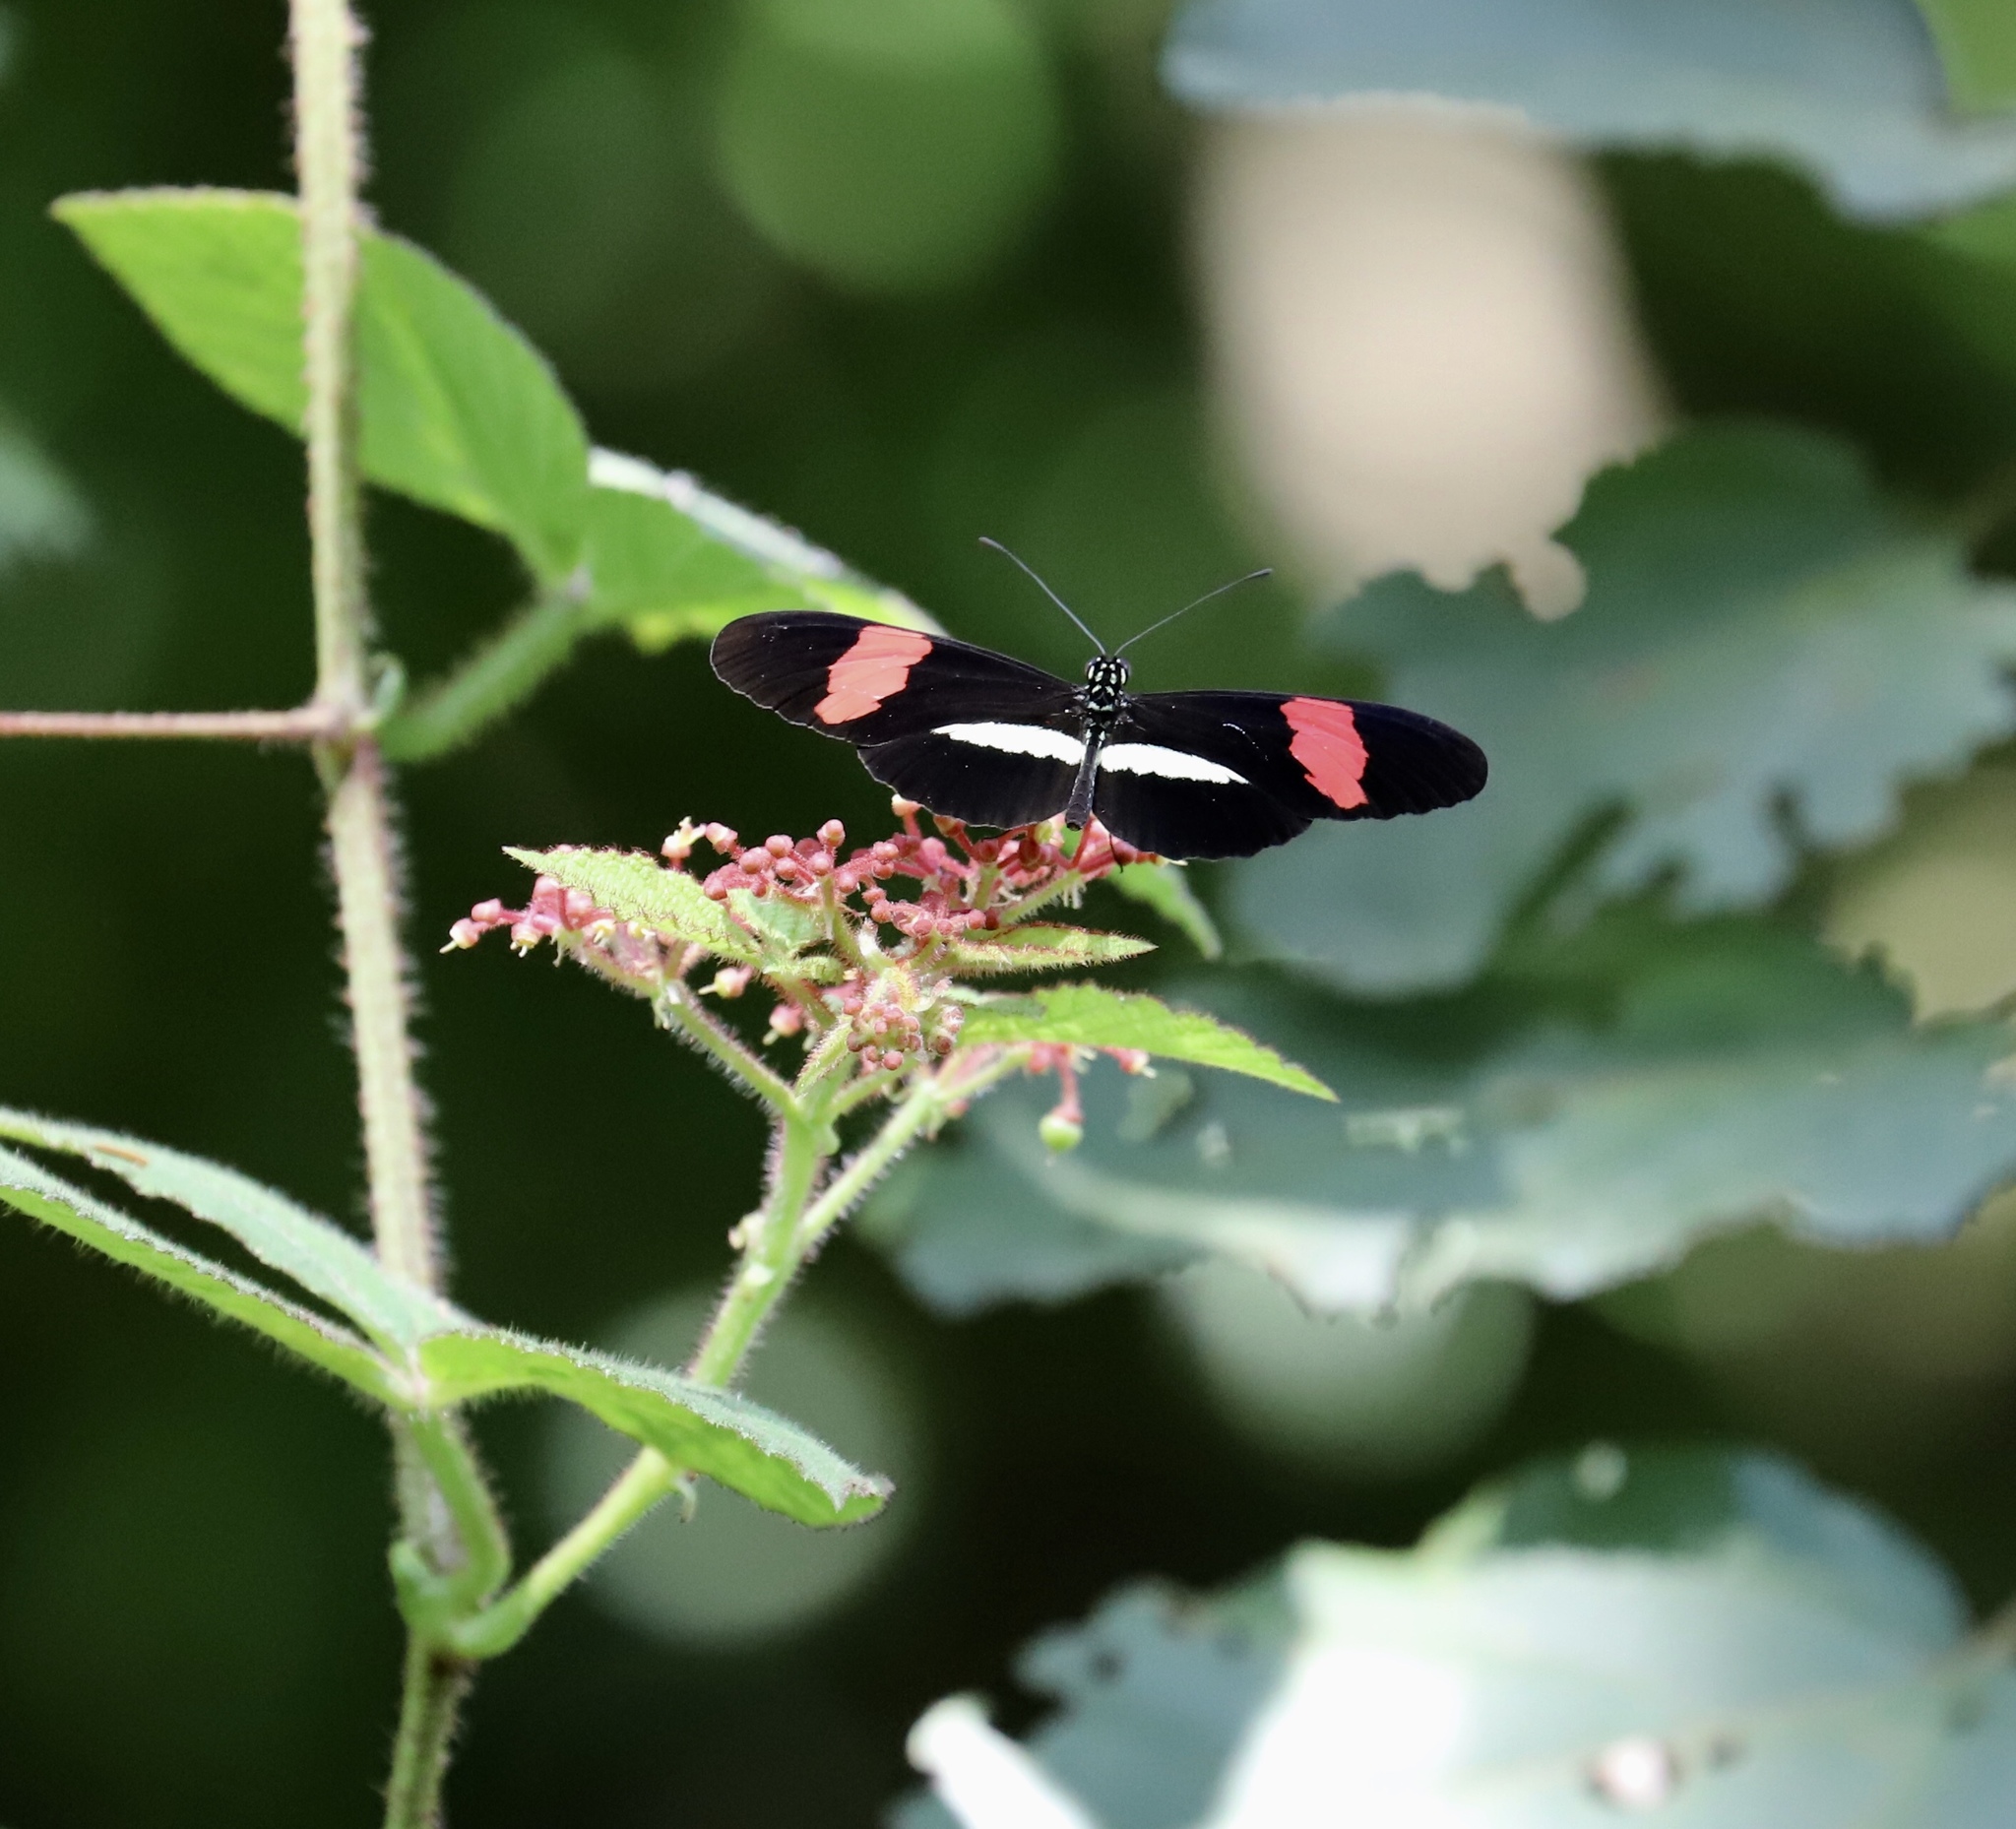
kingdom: Animalia
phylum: Arthropoda
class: Insecta
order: Lepidoptera
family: Nymphalidae
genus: Tirumala
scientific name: Tirumala petiverana
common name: Blue monarch
